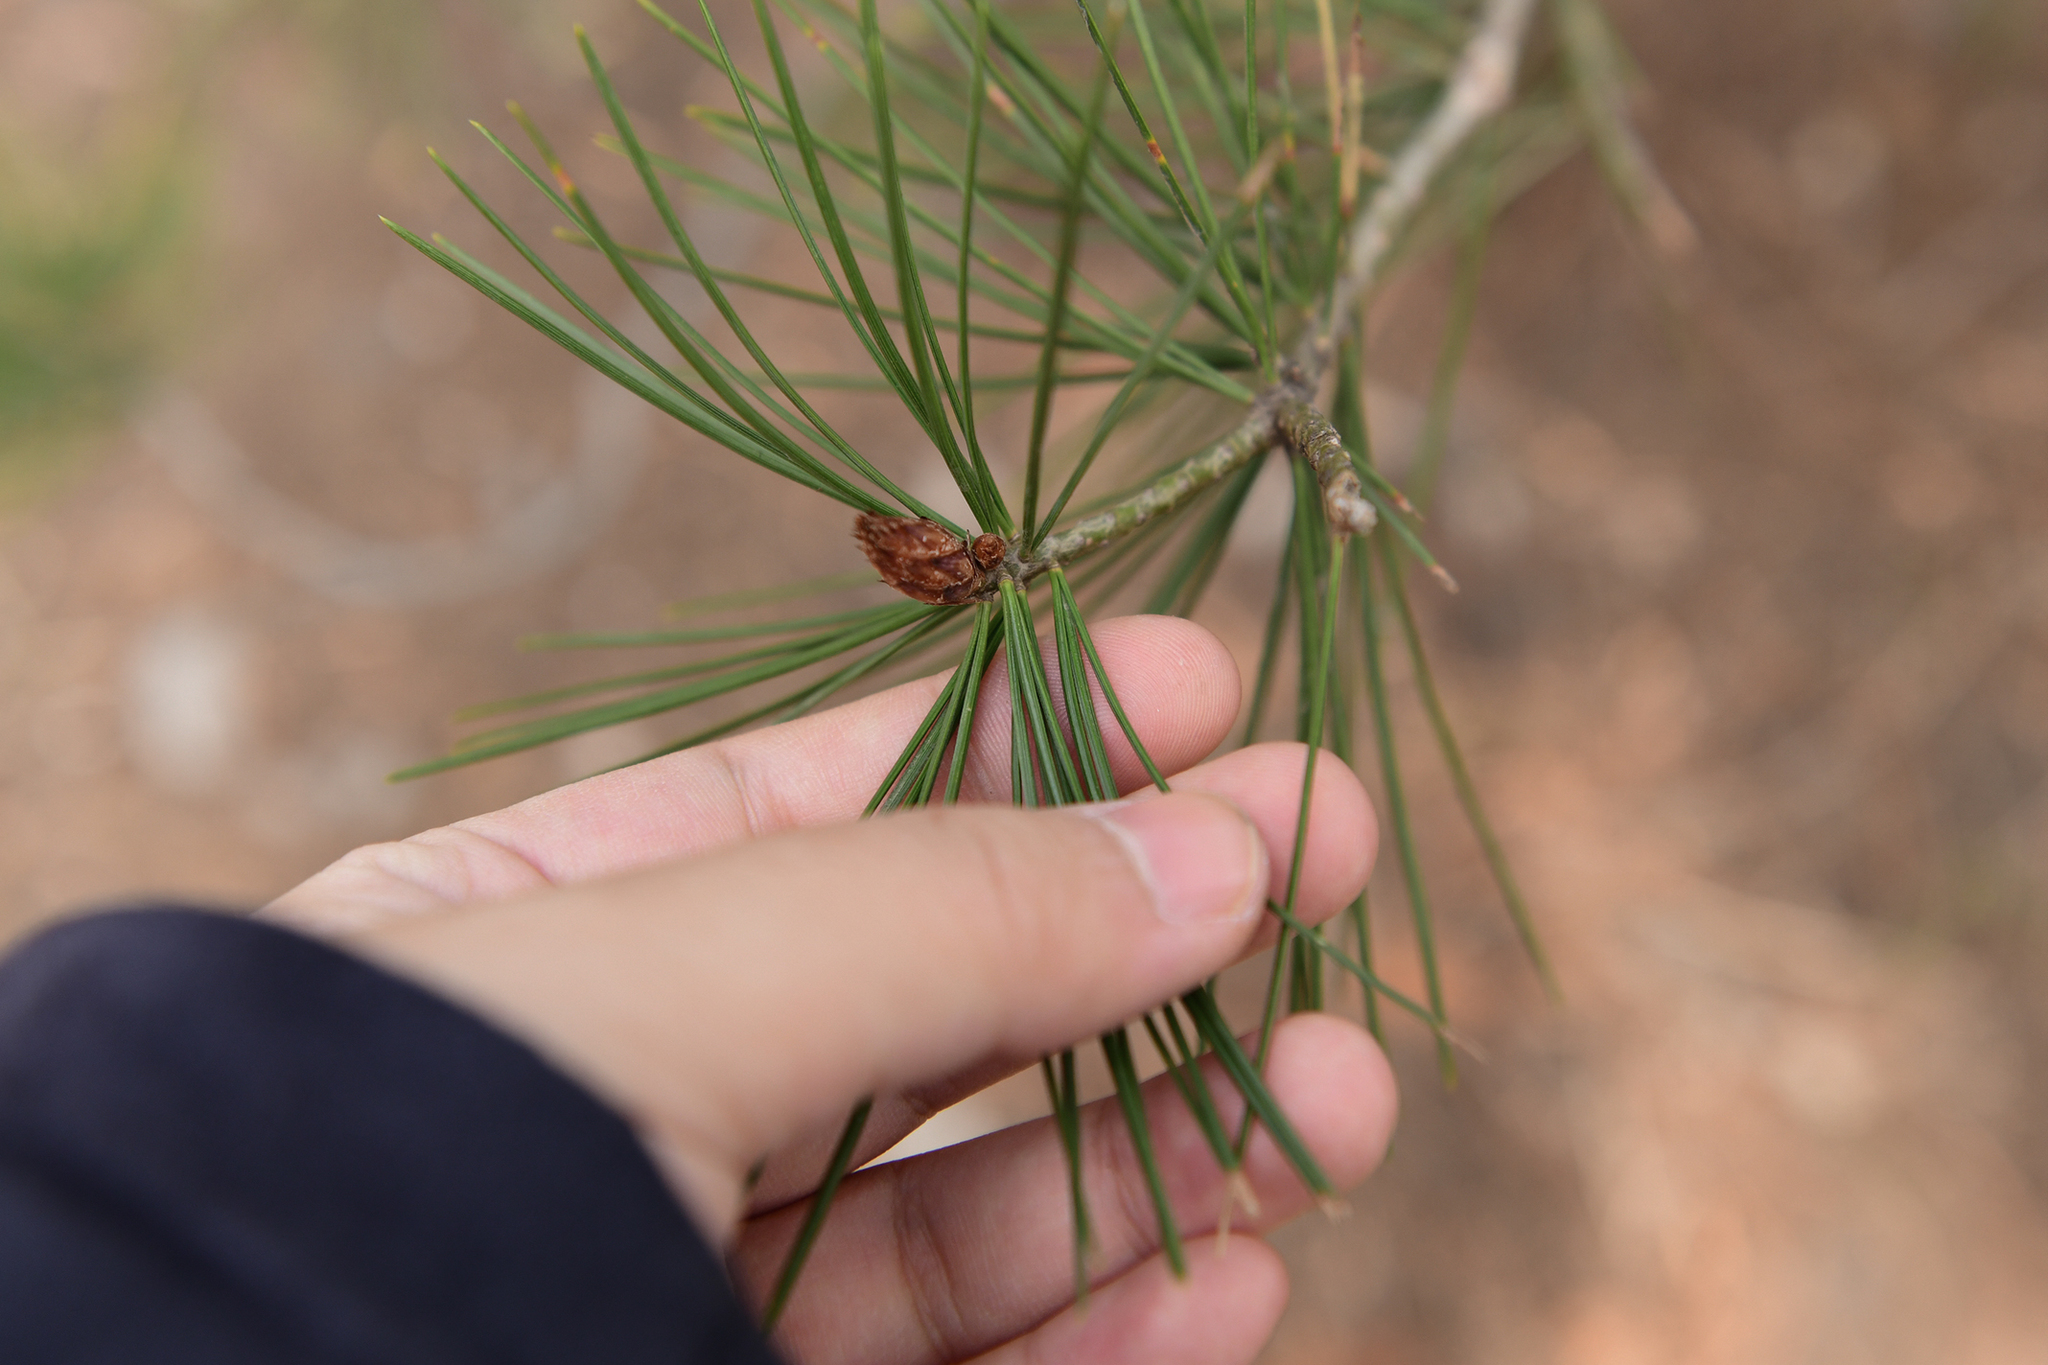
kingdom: Plantae
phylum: Tracheophyta
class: Pinopsida
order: Pinales
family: Pinaceae
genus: Pinus
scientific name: Pinus bungeana
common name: Lace-bark pine
